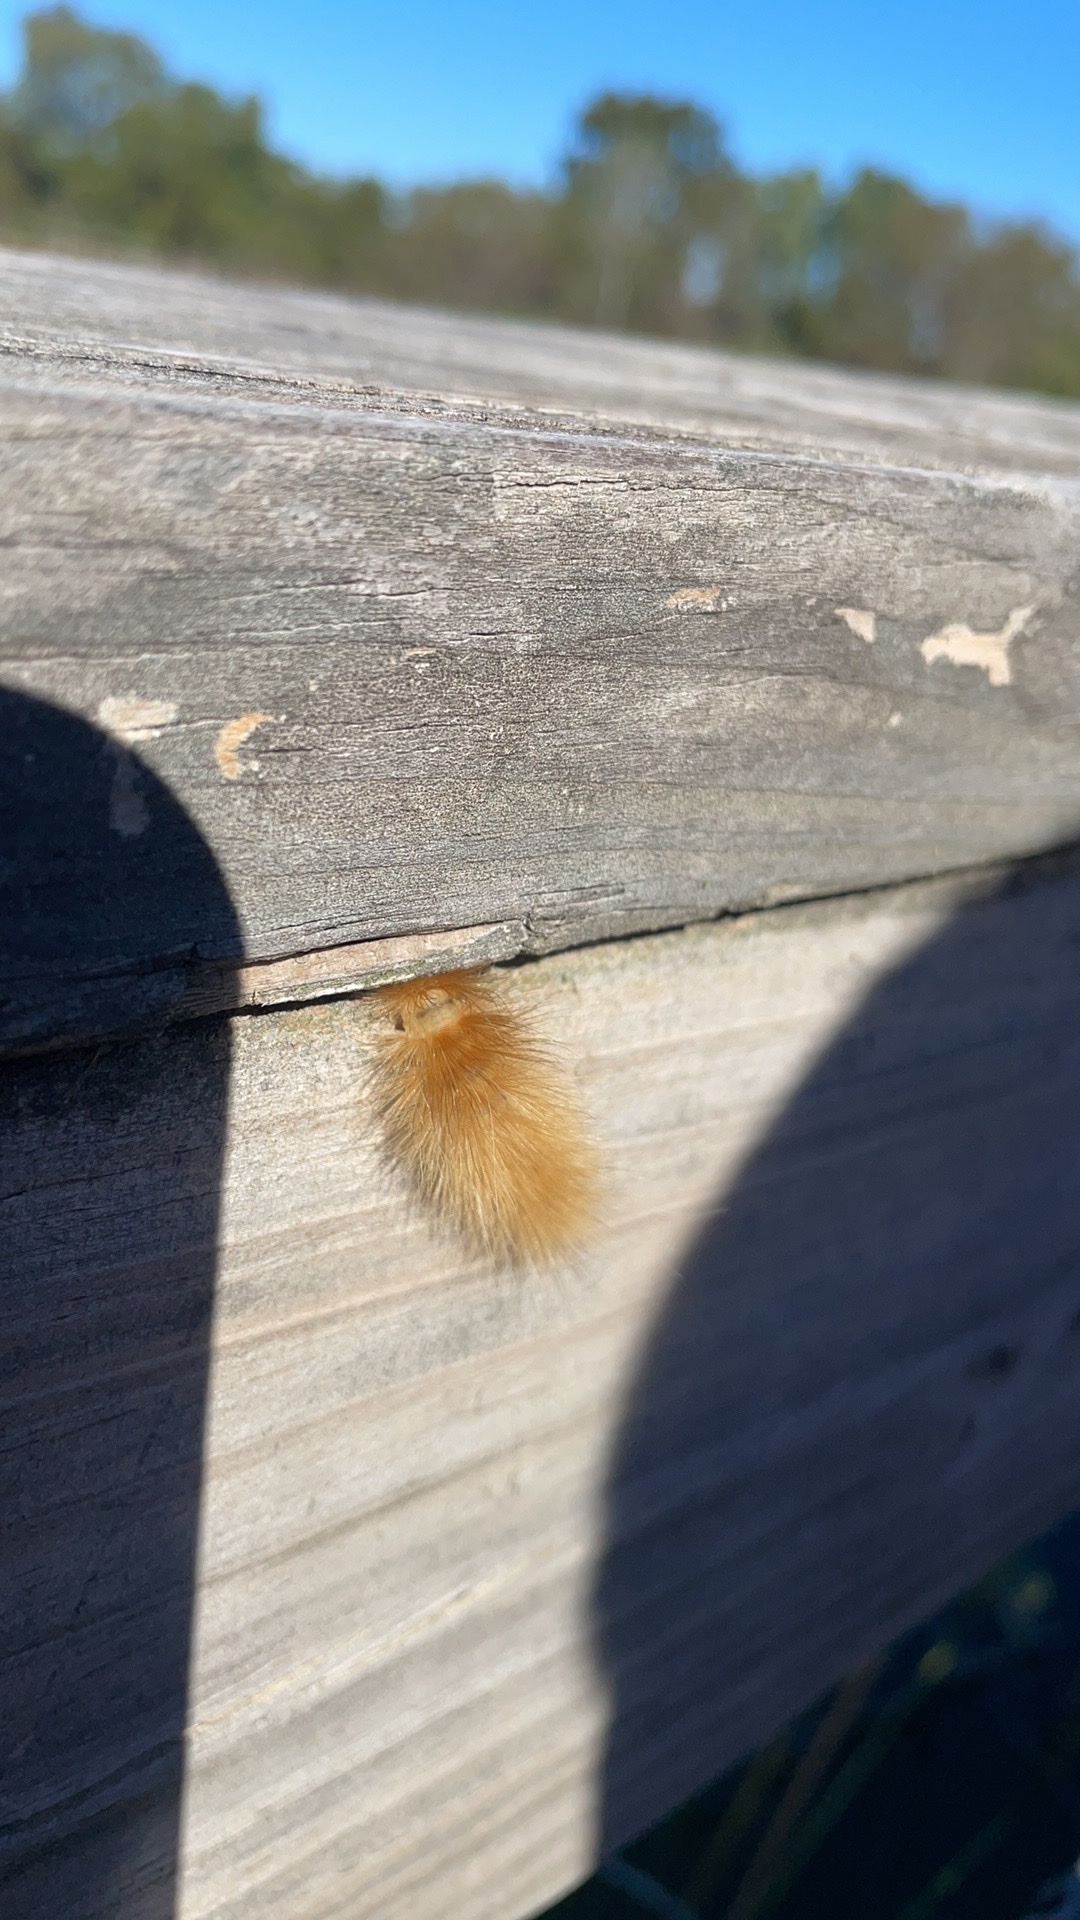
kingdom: Animalia
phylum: Arthropoda
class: Insecta
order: Lepidoptera
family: Erebidae
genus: Spilosoma
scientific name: Spilosoma virginica
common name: Virginia tiger moth
